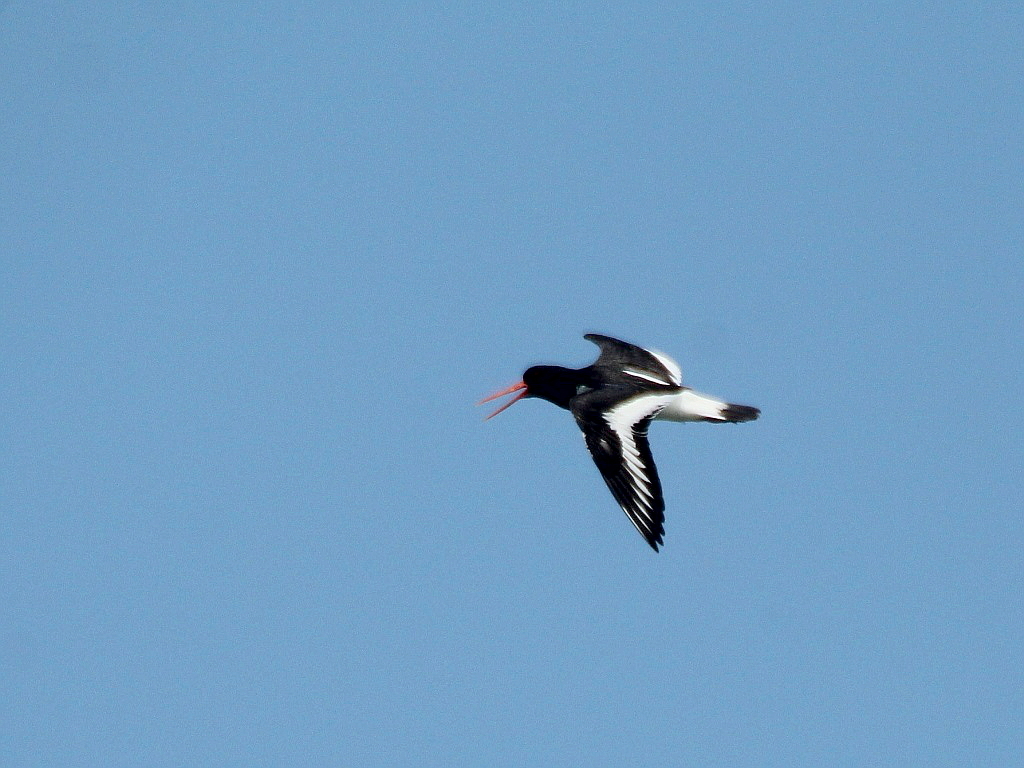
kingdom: Animalia
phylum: Chordata
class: Aves
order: Charadriiformes
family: Haematopodidae
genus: Haematopus
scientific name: Haematopus ostralegus
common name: Eurasian oystercatcher
